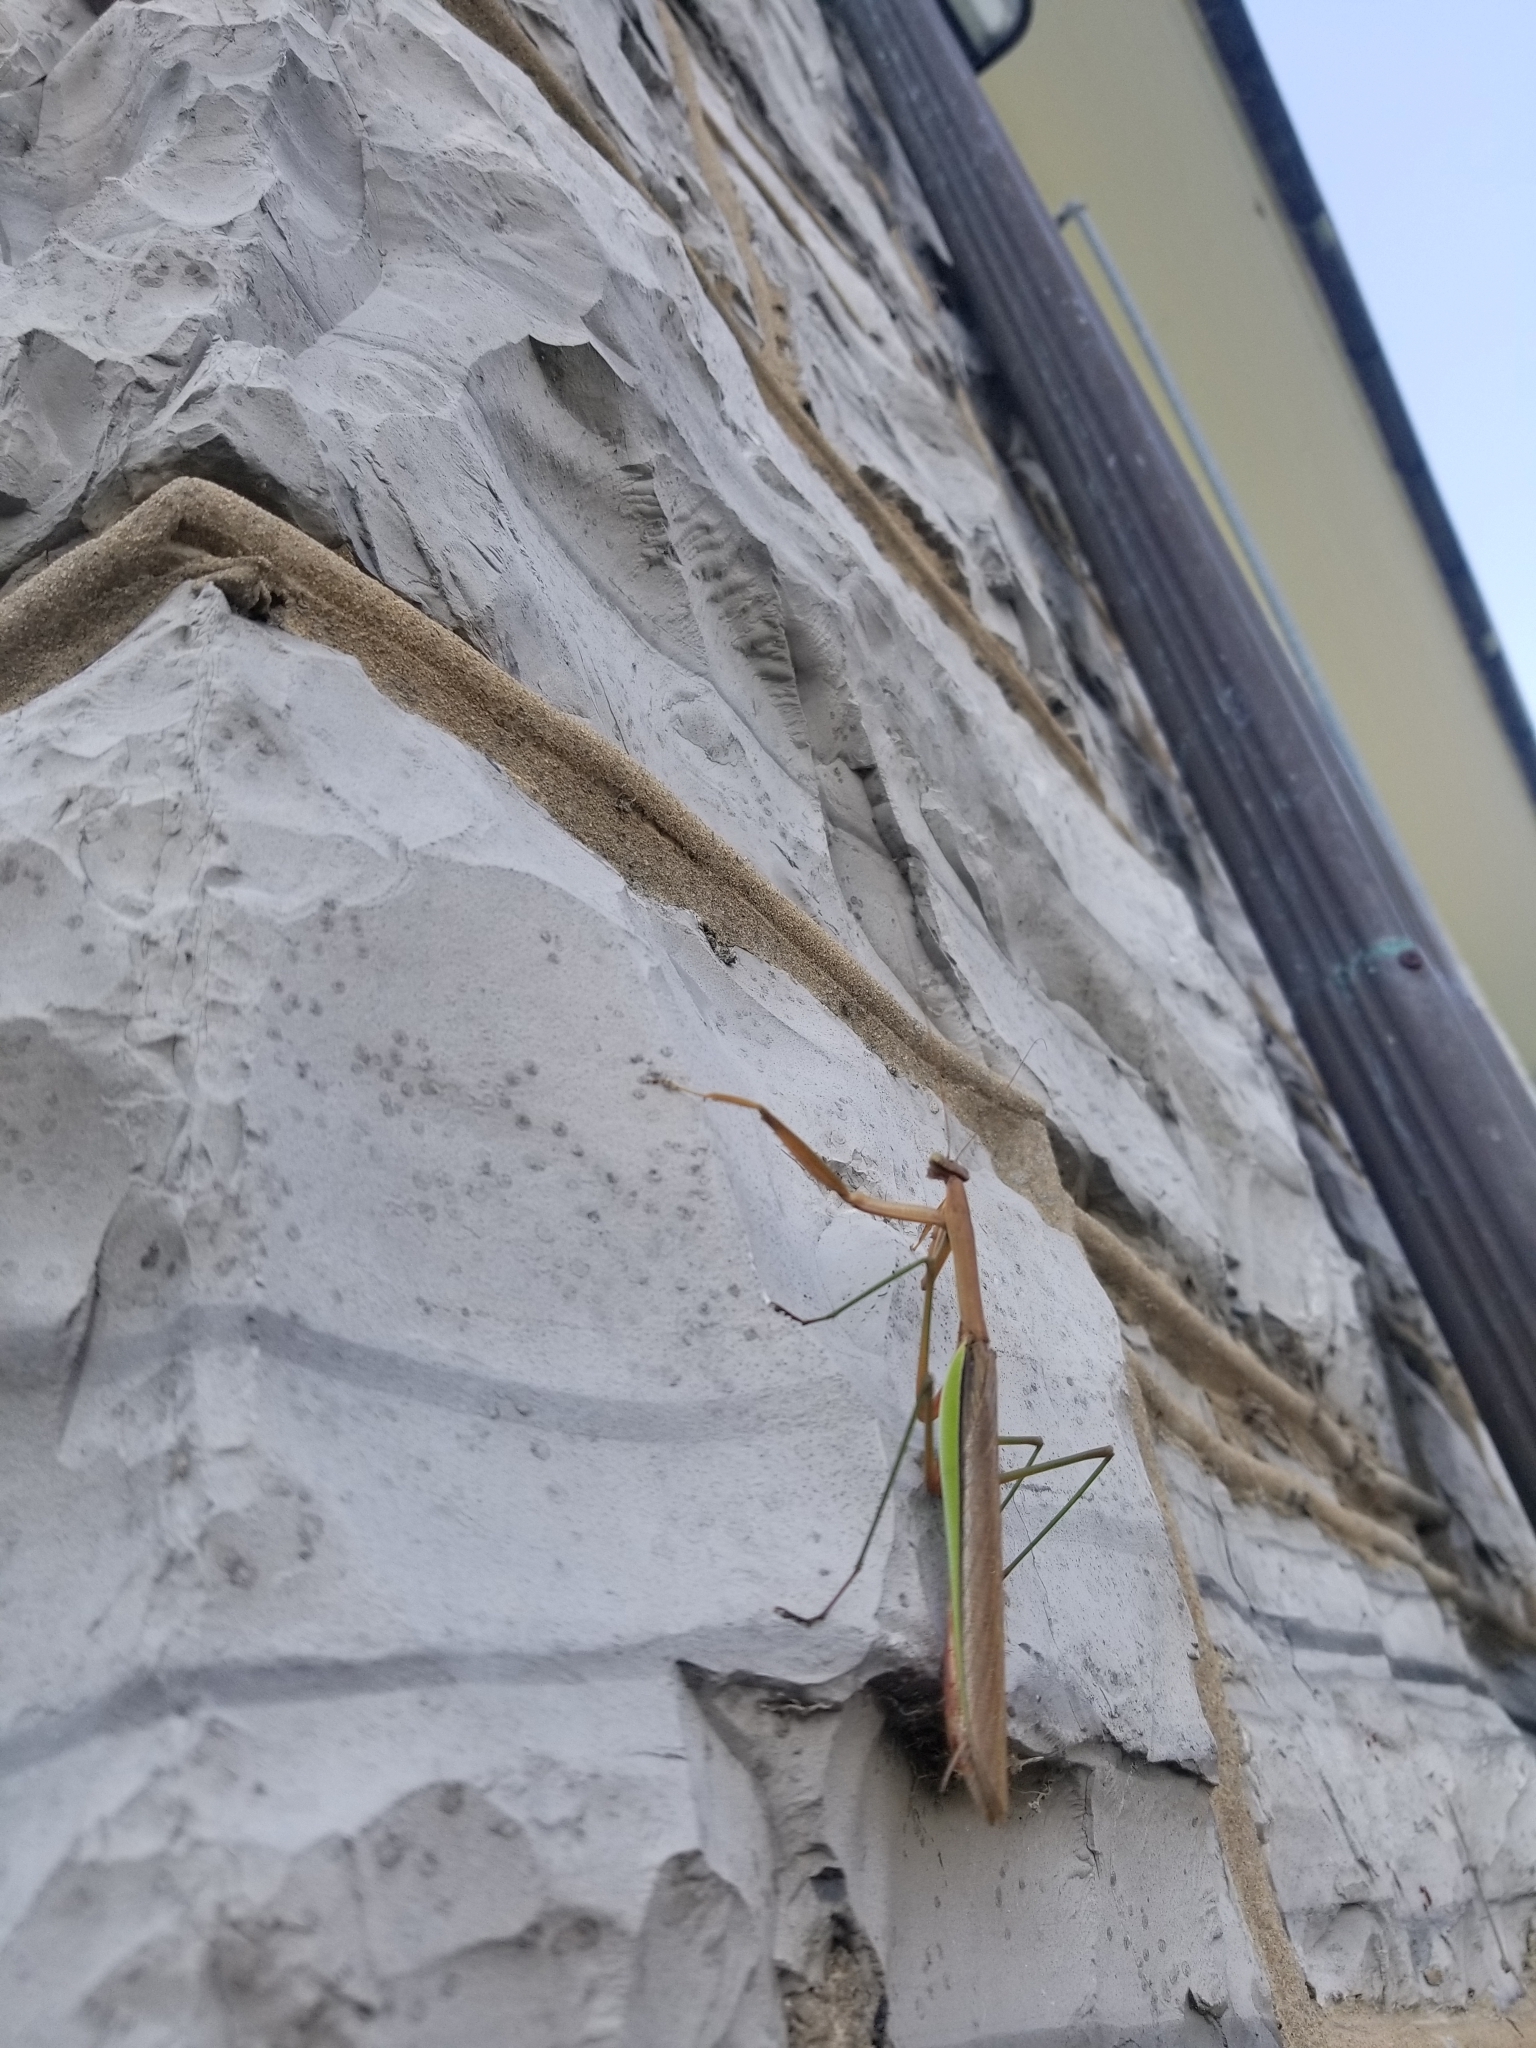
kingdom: Animalia
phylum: Arthropoda
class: Insecta
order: Mantodea
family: Mantidae
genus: Tenodera
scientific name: Tenodera sinensis
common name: Chinese mantis
